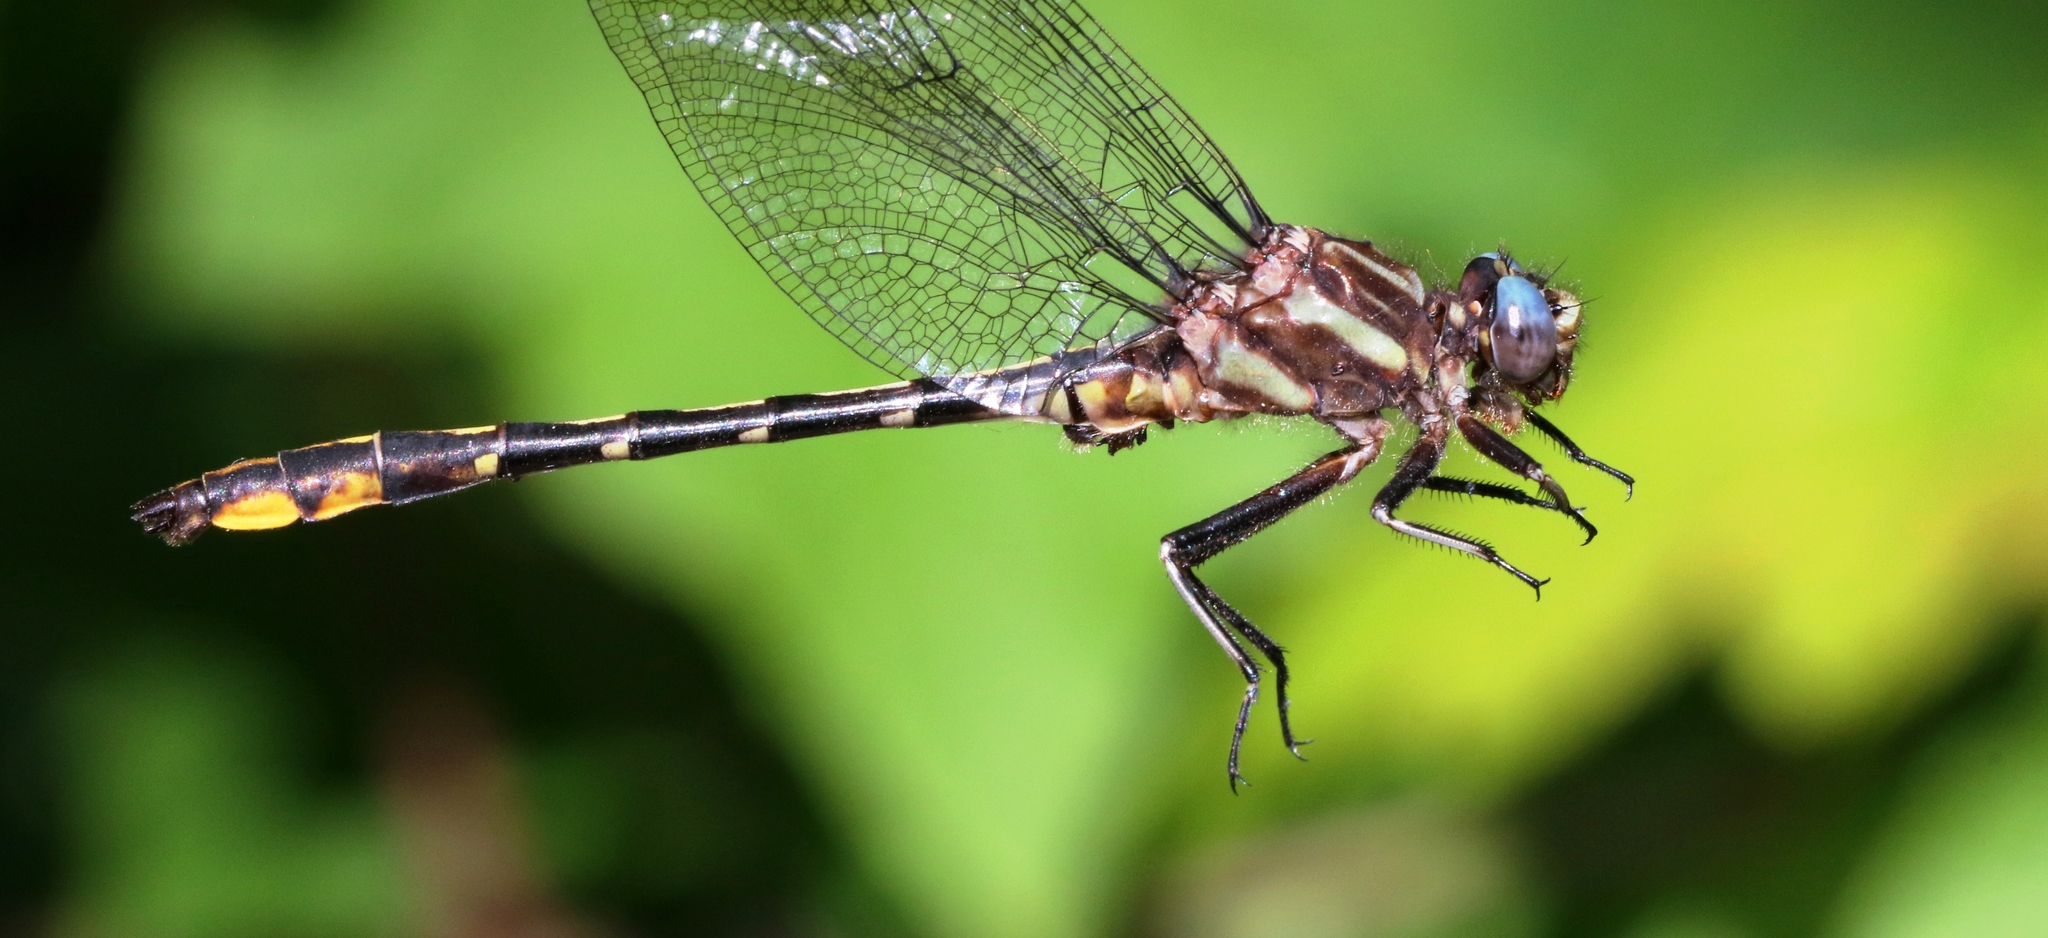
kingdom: Animalia
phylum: Arthropoda
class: Insecta
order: Odonata
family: Gomphidae
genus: Phanogomphus
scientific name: Phanogomphus exilis
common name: Lancet clubtail
